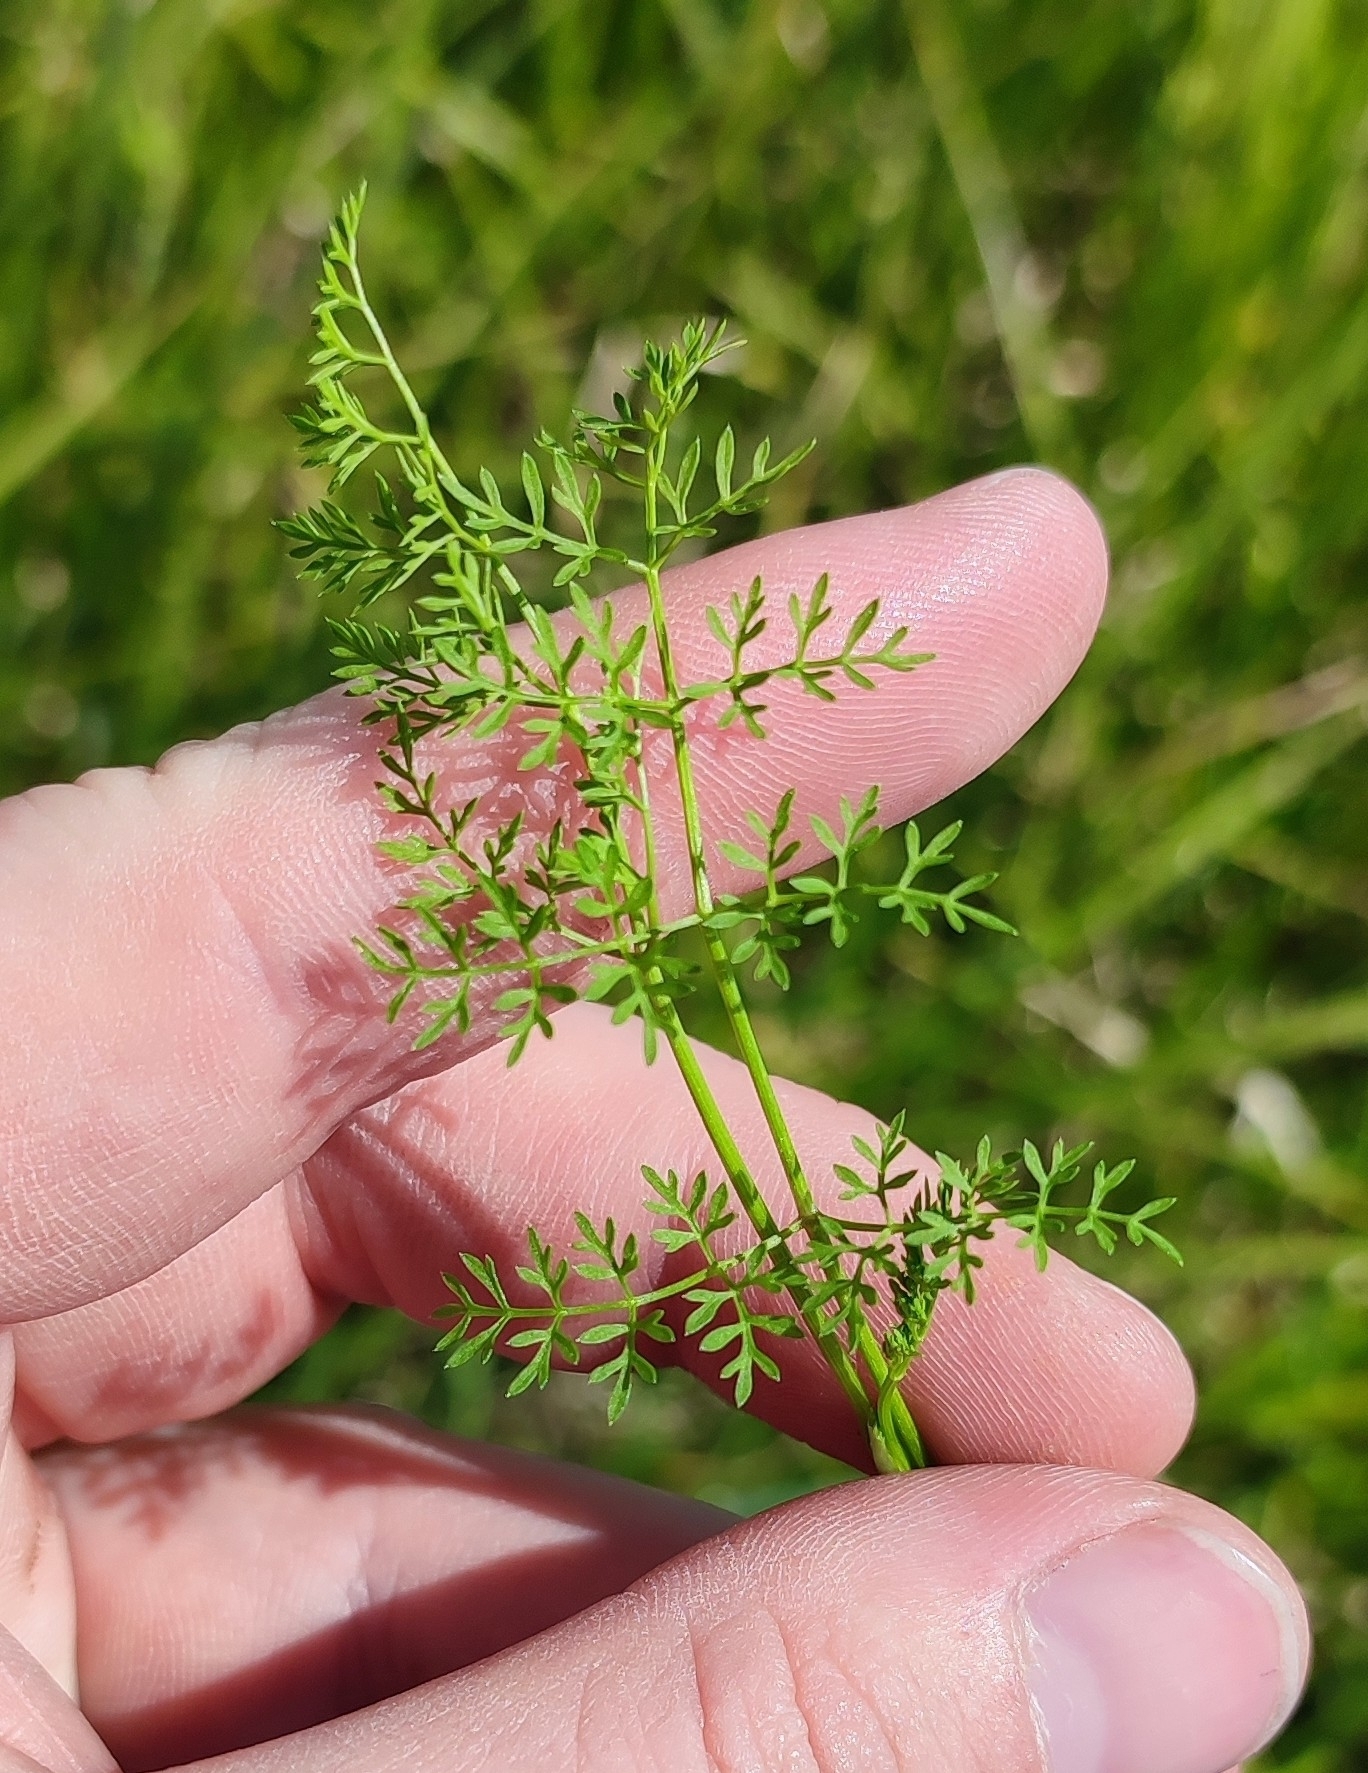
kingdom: Plantae
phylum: Tracheophyta
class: Magnoliopsida
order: Apiales
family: Apiaceae
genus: Oenanthe
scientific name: Oenanthe aquatica
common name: Fine-leaved water-dropwort
